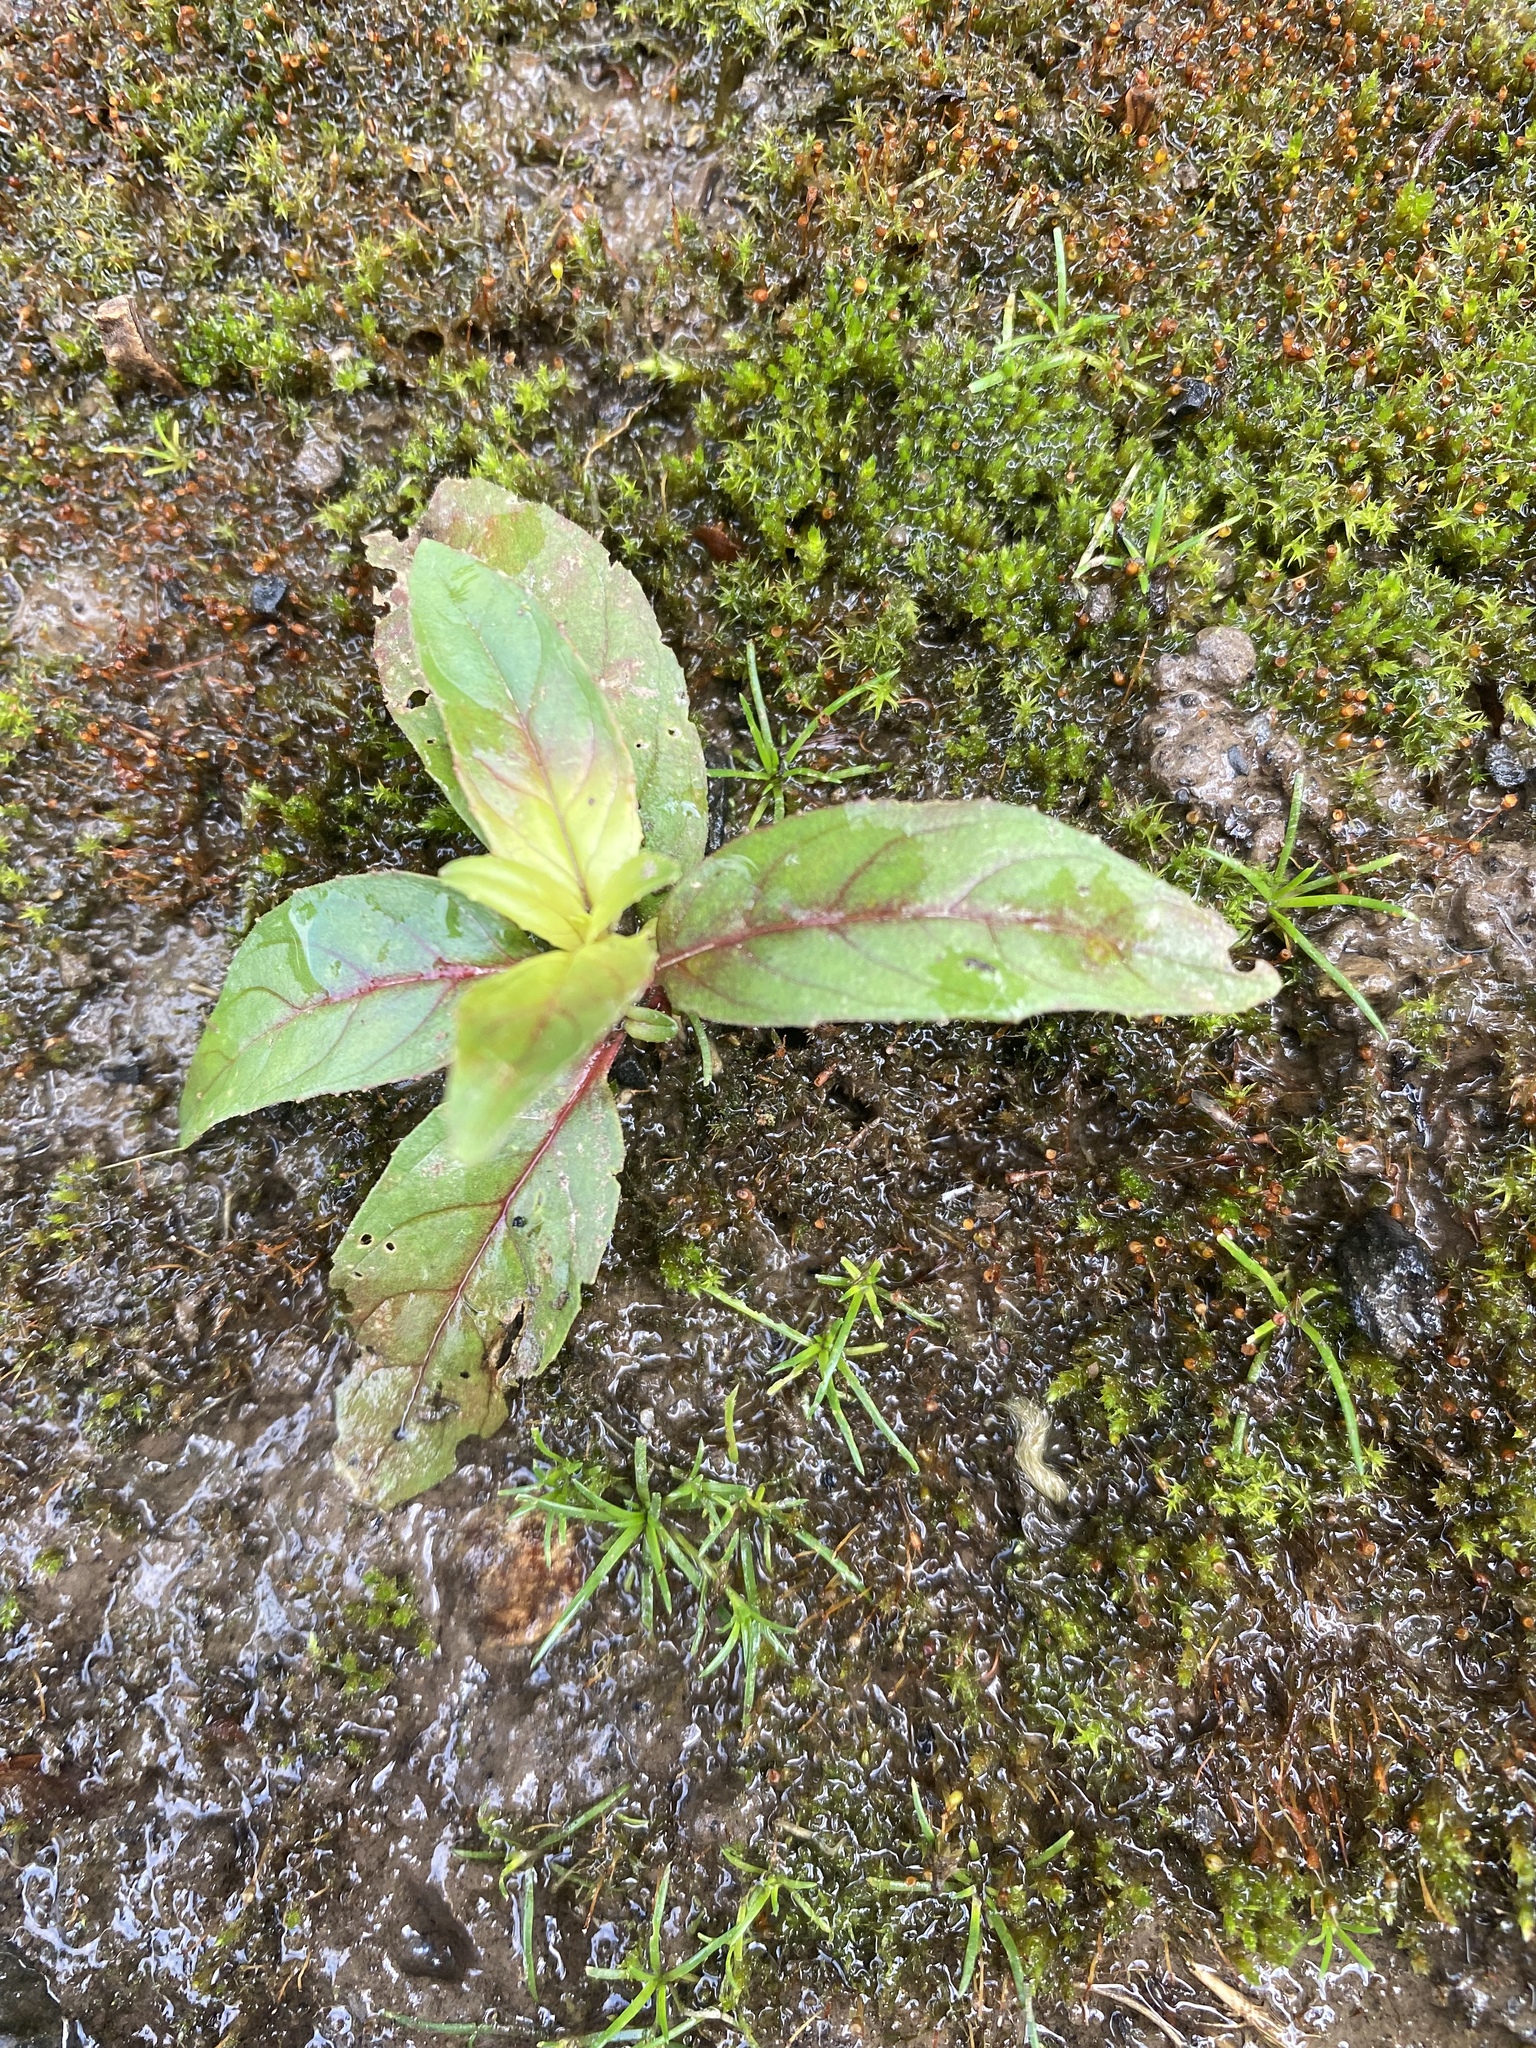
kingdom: Plantae
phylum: Tracheophyta
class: Magnoliopsida
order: Myrtales
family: Onagraceae
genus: Epilobium
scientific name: Epilobium ciliatum
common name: American willowherb
